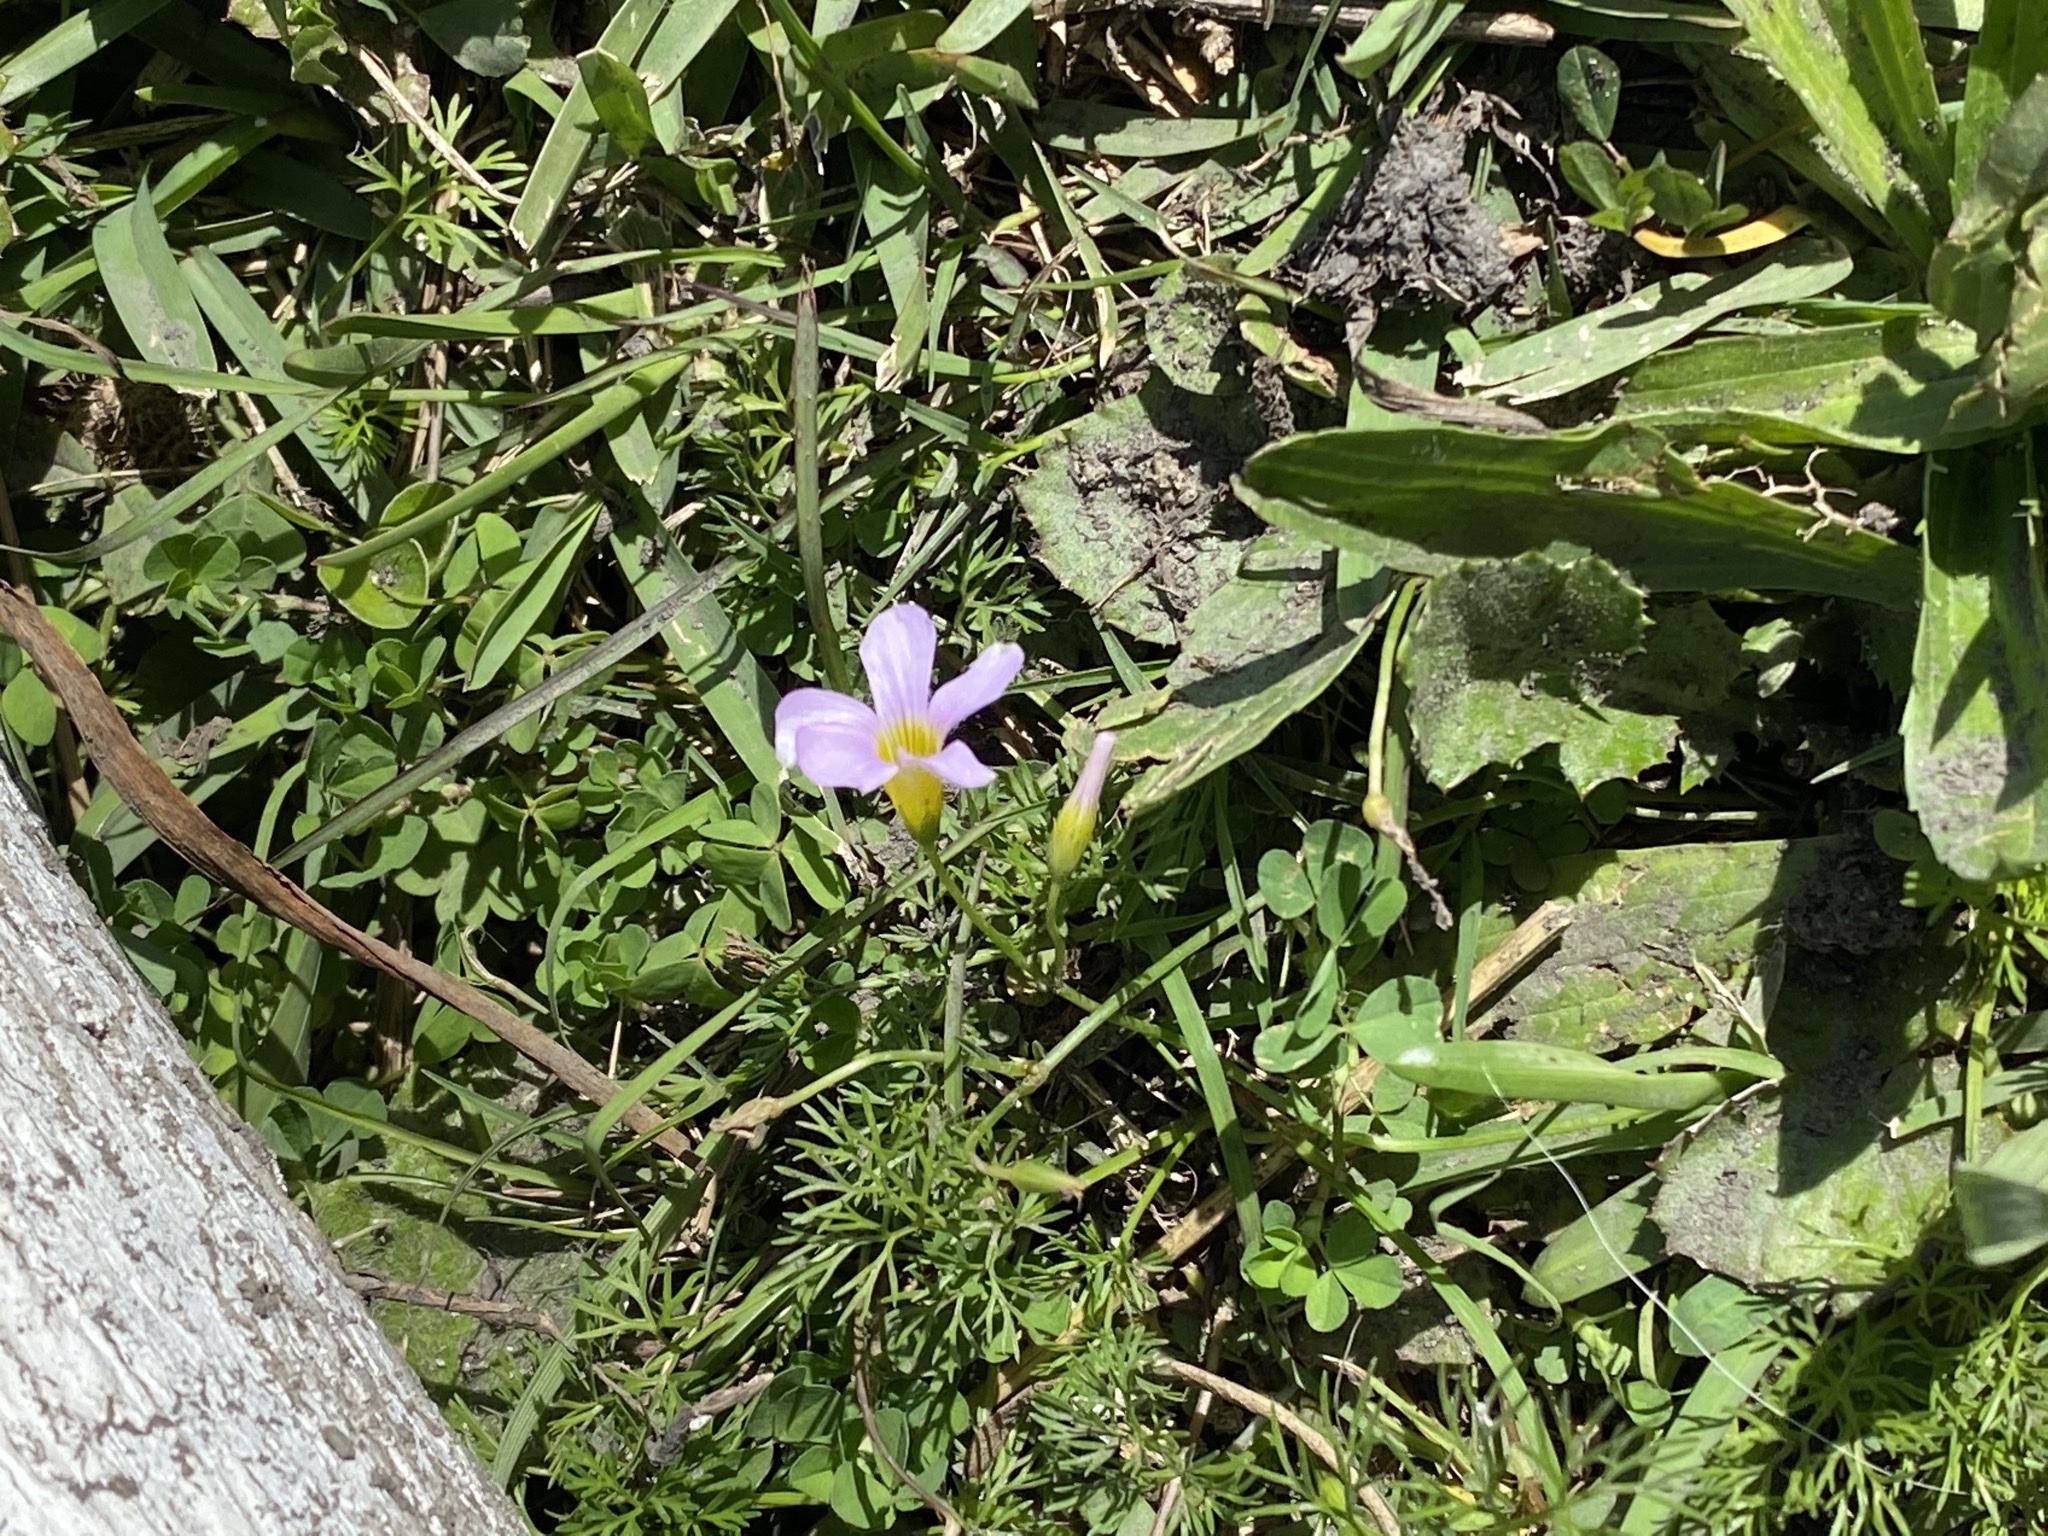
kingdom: Plantae
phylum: Tracheophyta
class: Magnoliopsida
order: Oxalidales
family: Oxalidaceae
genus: Oxalis
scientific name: Oxalis caprina
